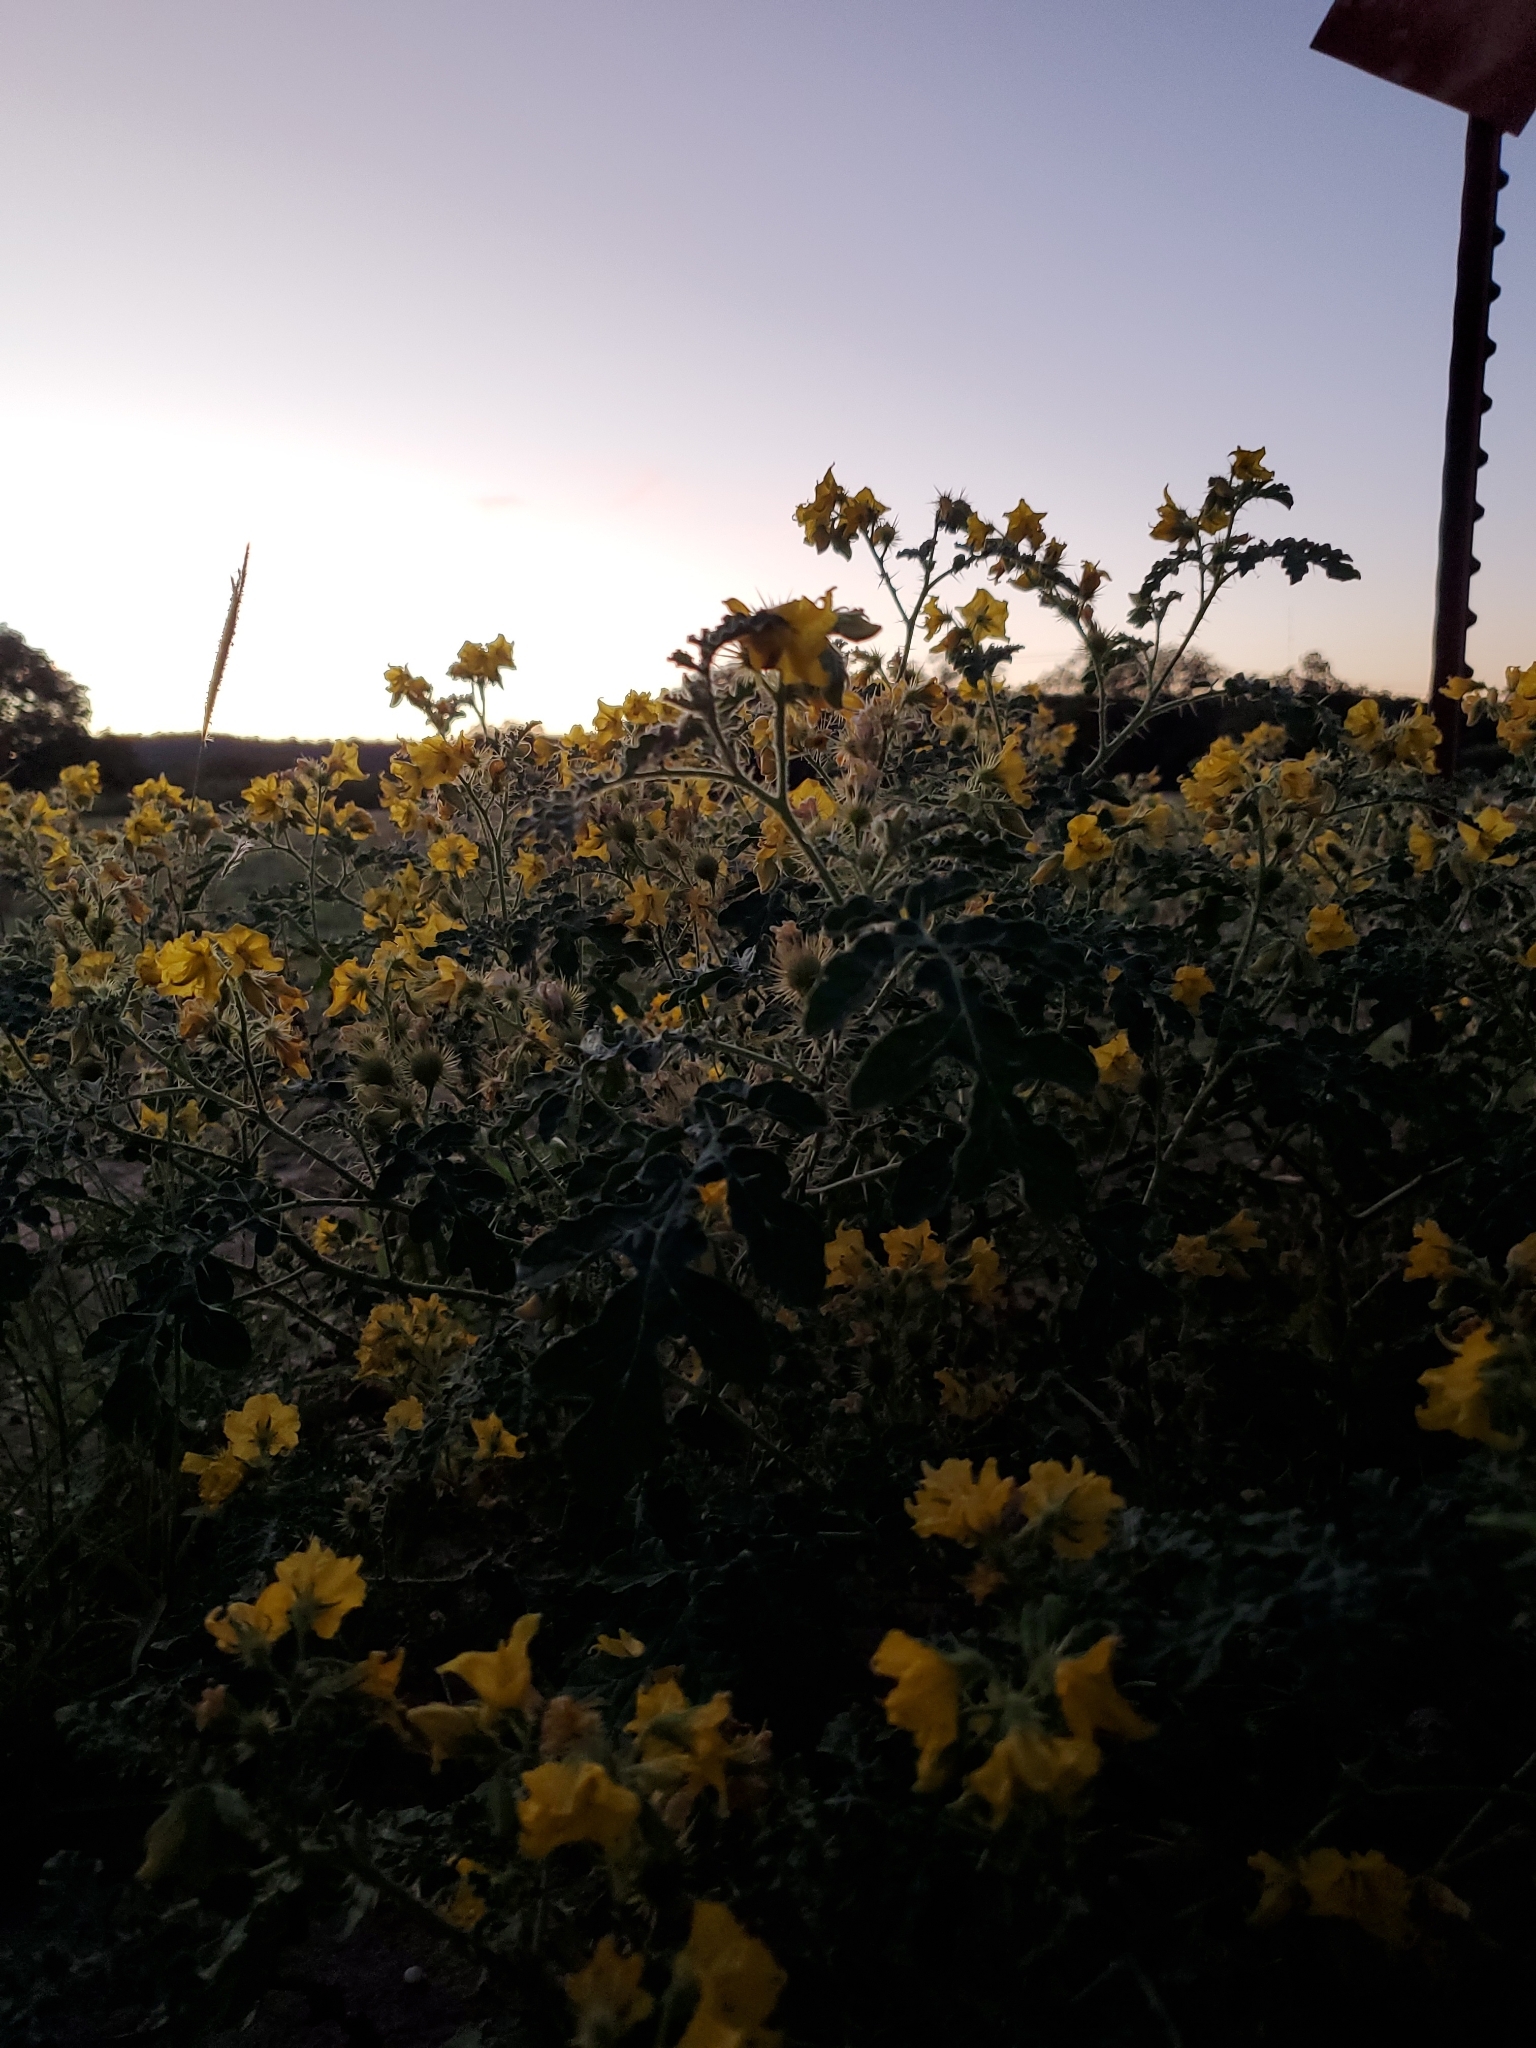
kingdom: Plantae
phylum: Tracheophyta
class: Magnoliopsida
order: Solanales
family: Solanaceae
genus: Solanum
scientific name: Solanum angustifolium
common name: Buffalobur nightshade
